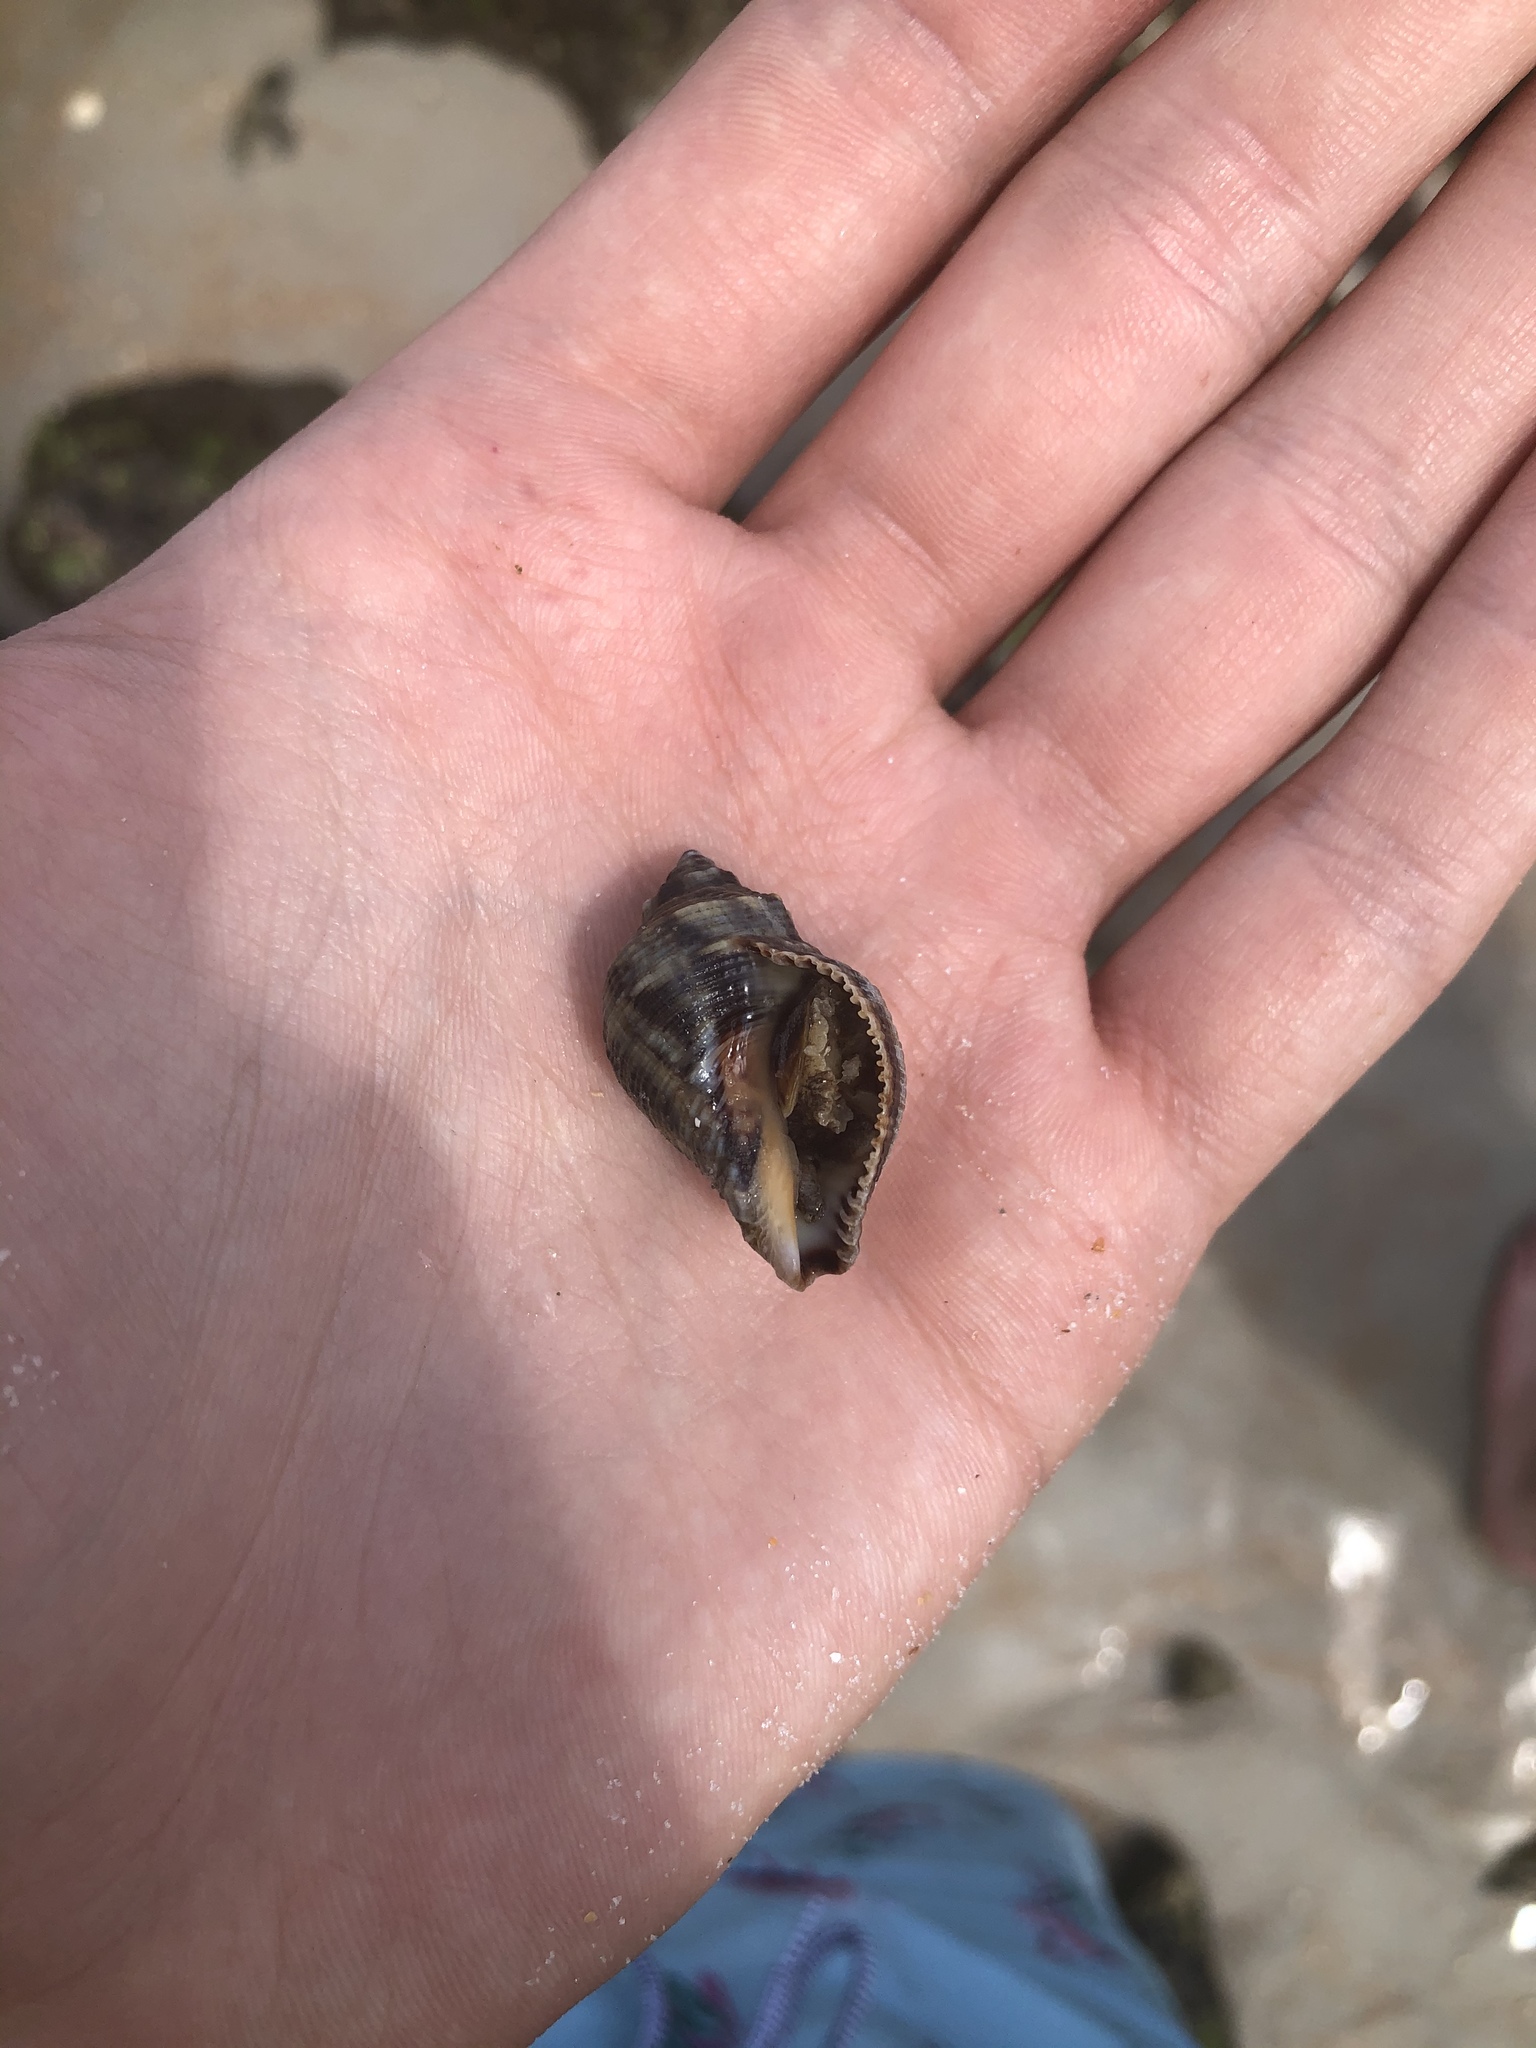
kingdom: Animalia
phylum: Mollusca
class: Gastropoda
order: Neogastropoda
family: Muricidae
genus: Stramonita
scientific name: Stramonita floridana
